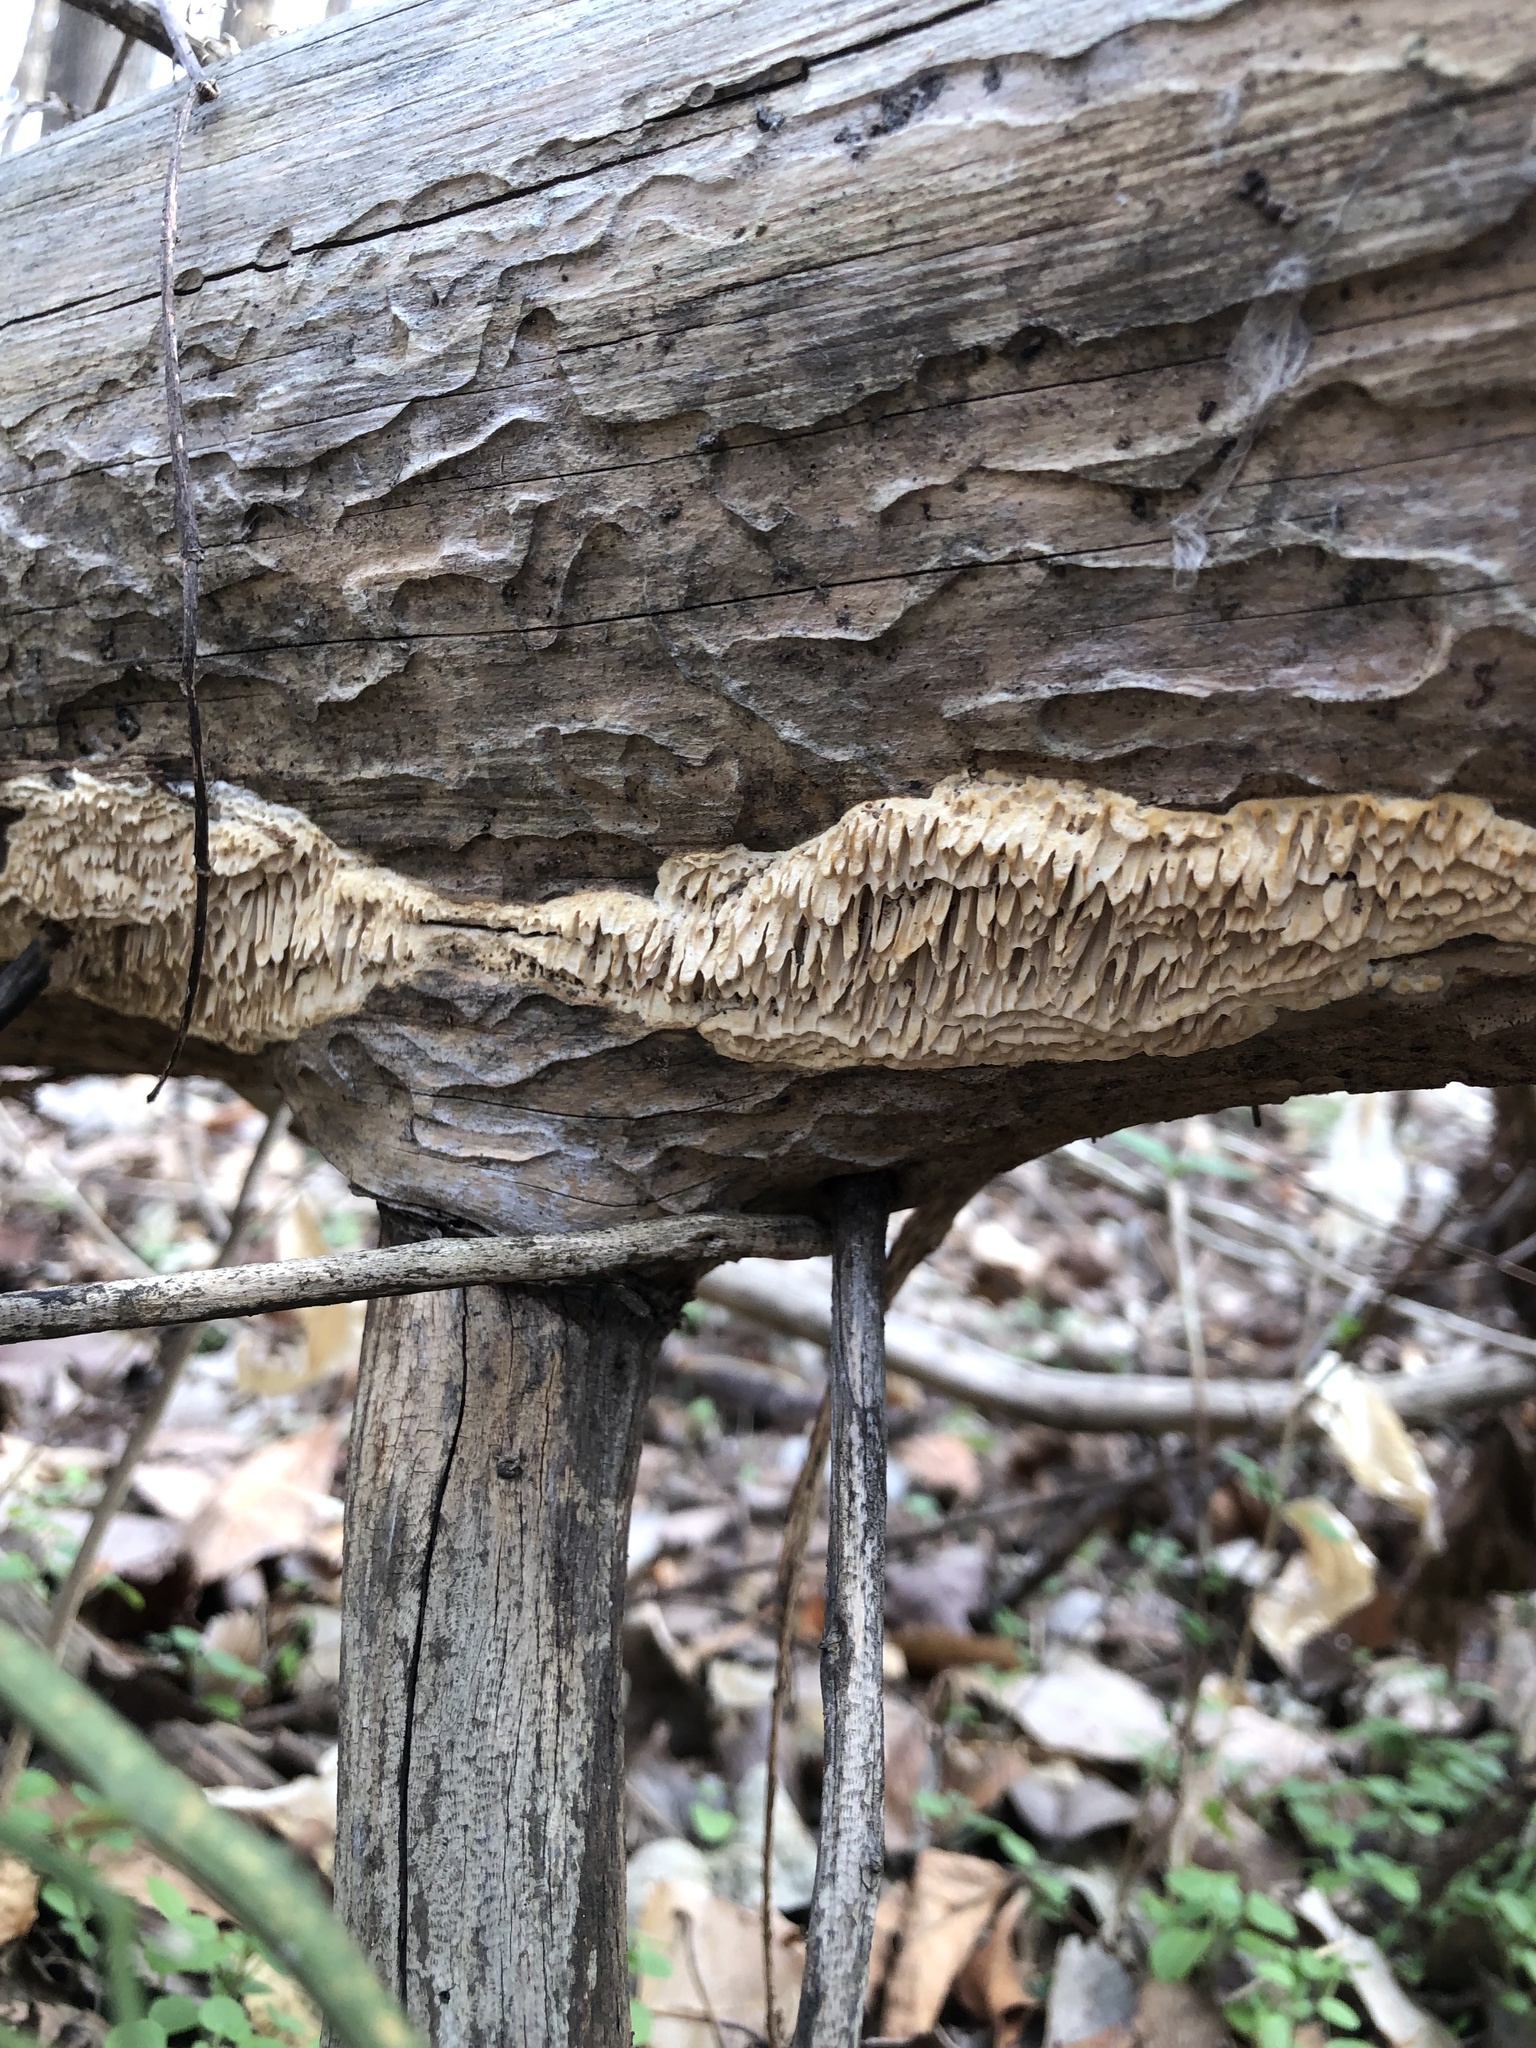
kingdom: Fungi
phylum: Basidiomycota
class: Agaricomycetes
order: Polyporales
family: Fomitopsidaceae
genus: Fomitopsis
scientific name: Fomitopsis
